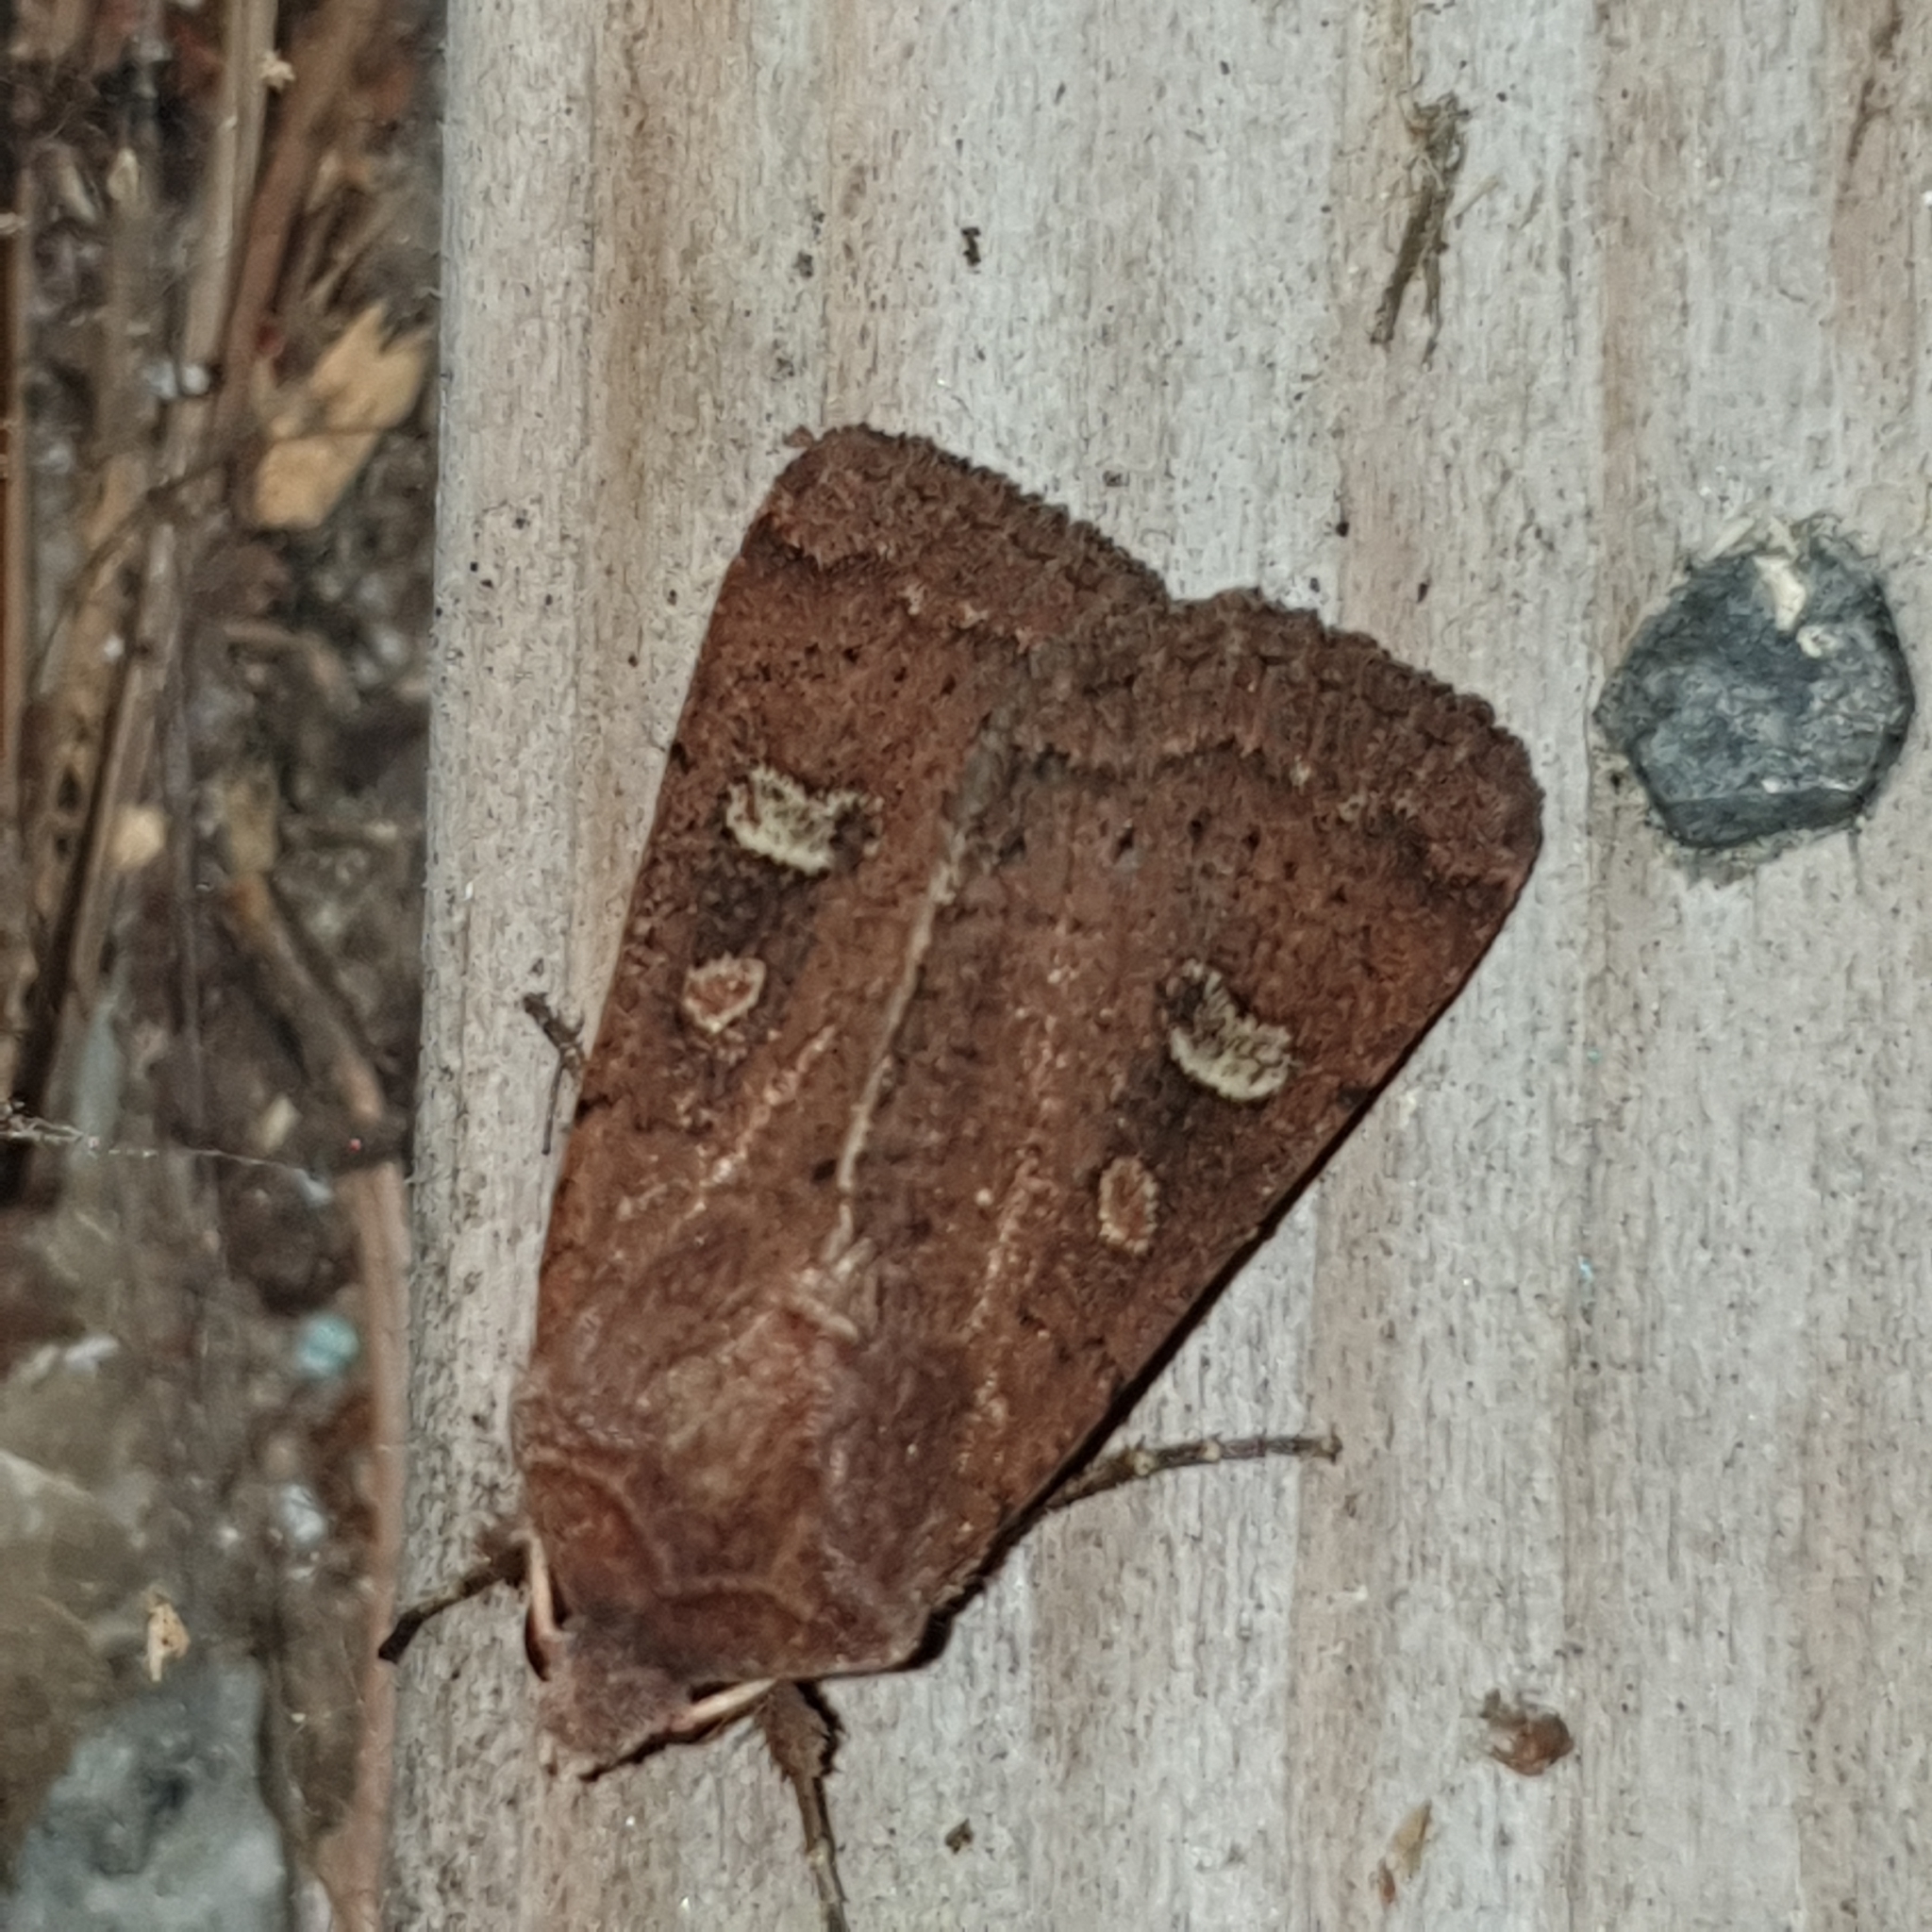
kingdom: Animalia
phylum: Arthropoda
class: Insecta
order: Lepidoptera
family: Noctuidae
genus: Xestia
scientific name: Xestia xanthographa
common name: Square-spot rustic
